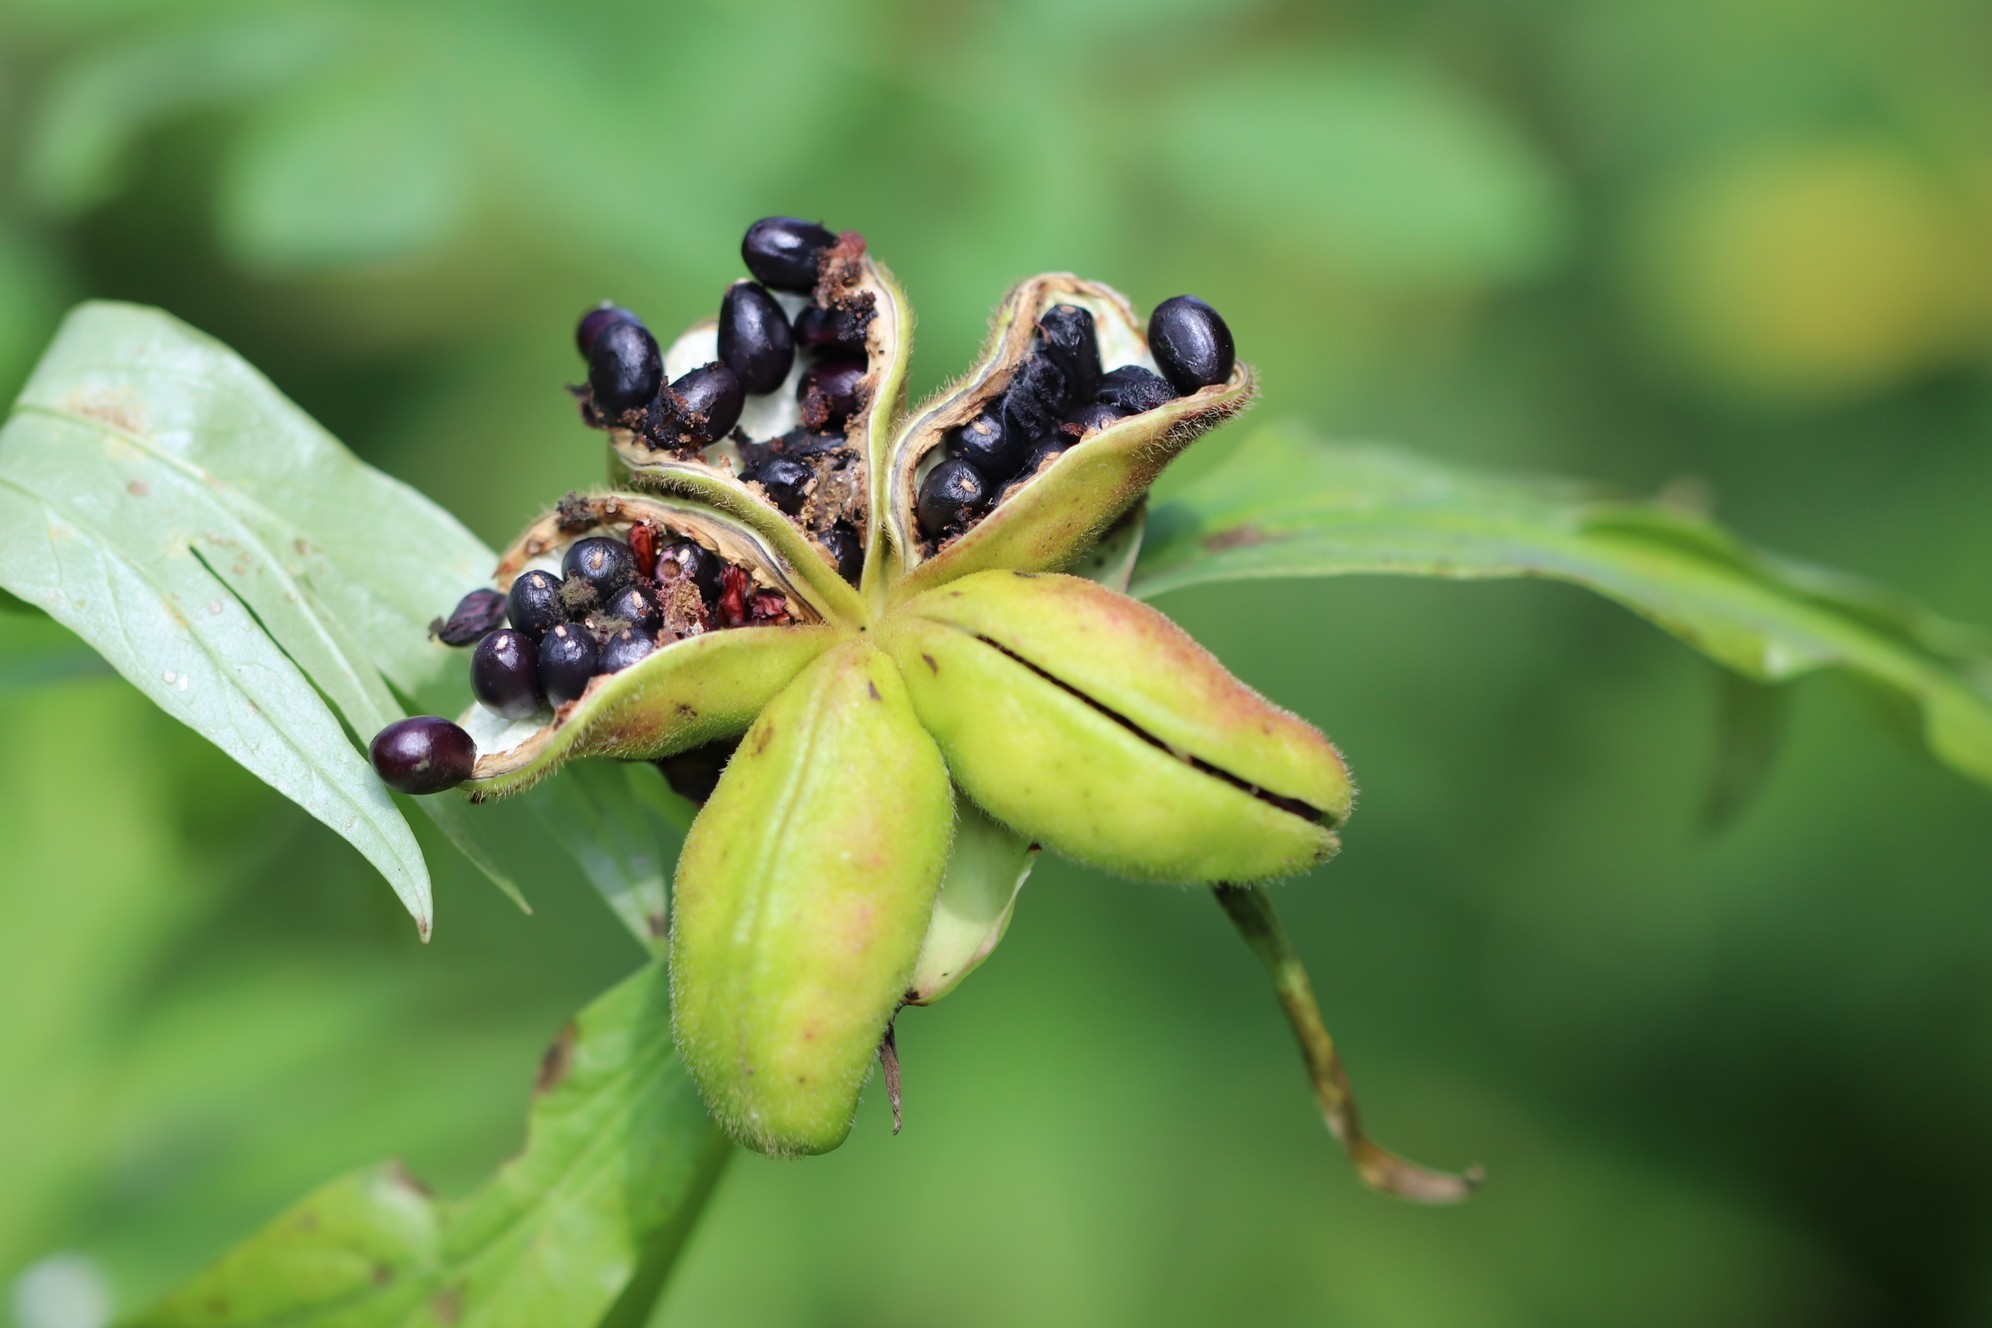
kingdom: Plantae
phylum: Tracheophyta
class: Magnoliopsida
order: Saxifragales
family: Paeoniaceae
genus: Paeonia
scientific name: Paeonia anomala
